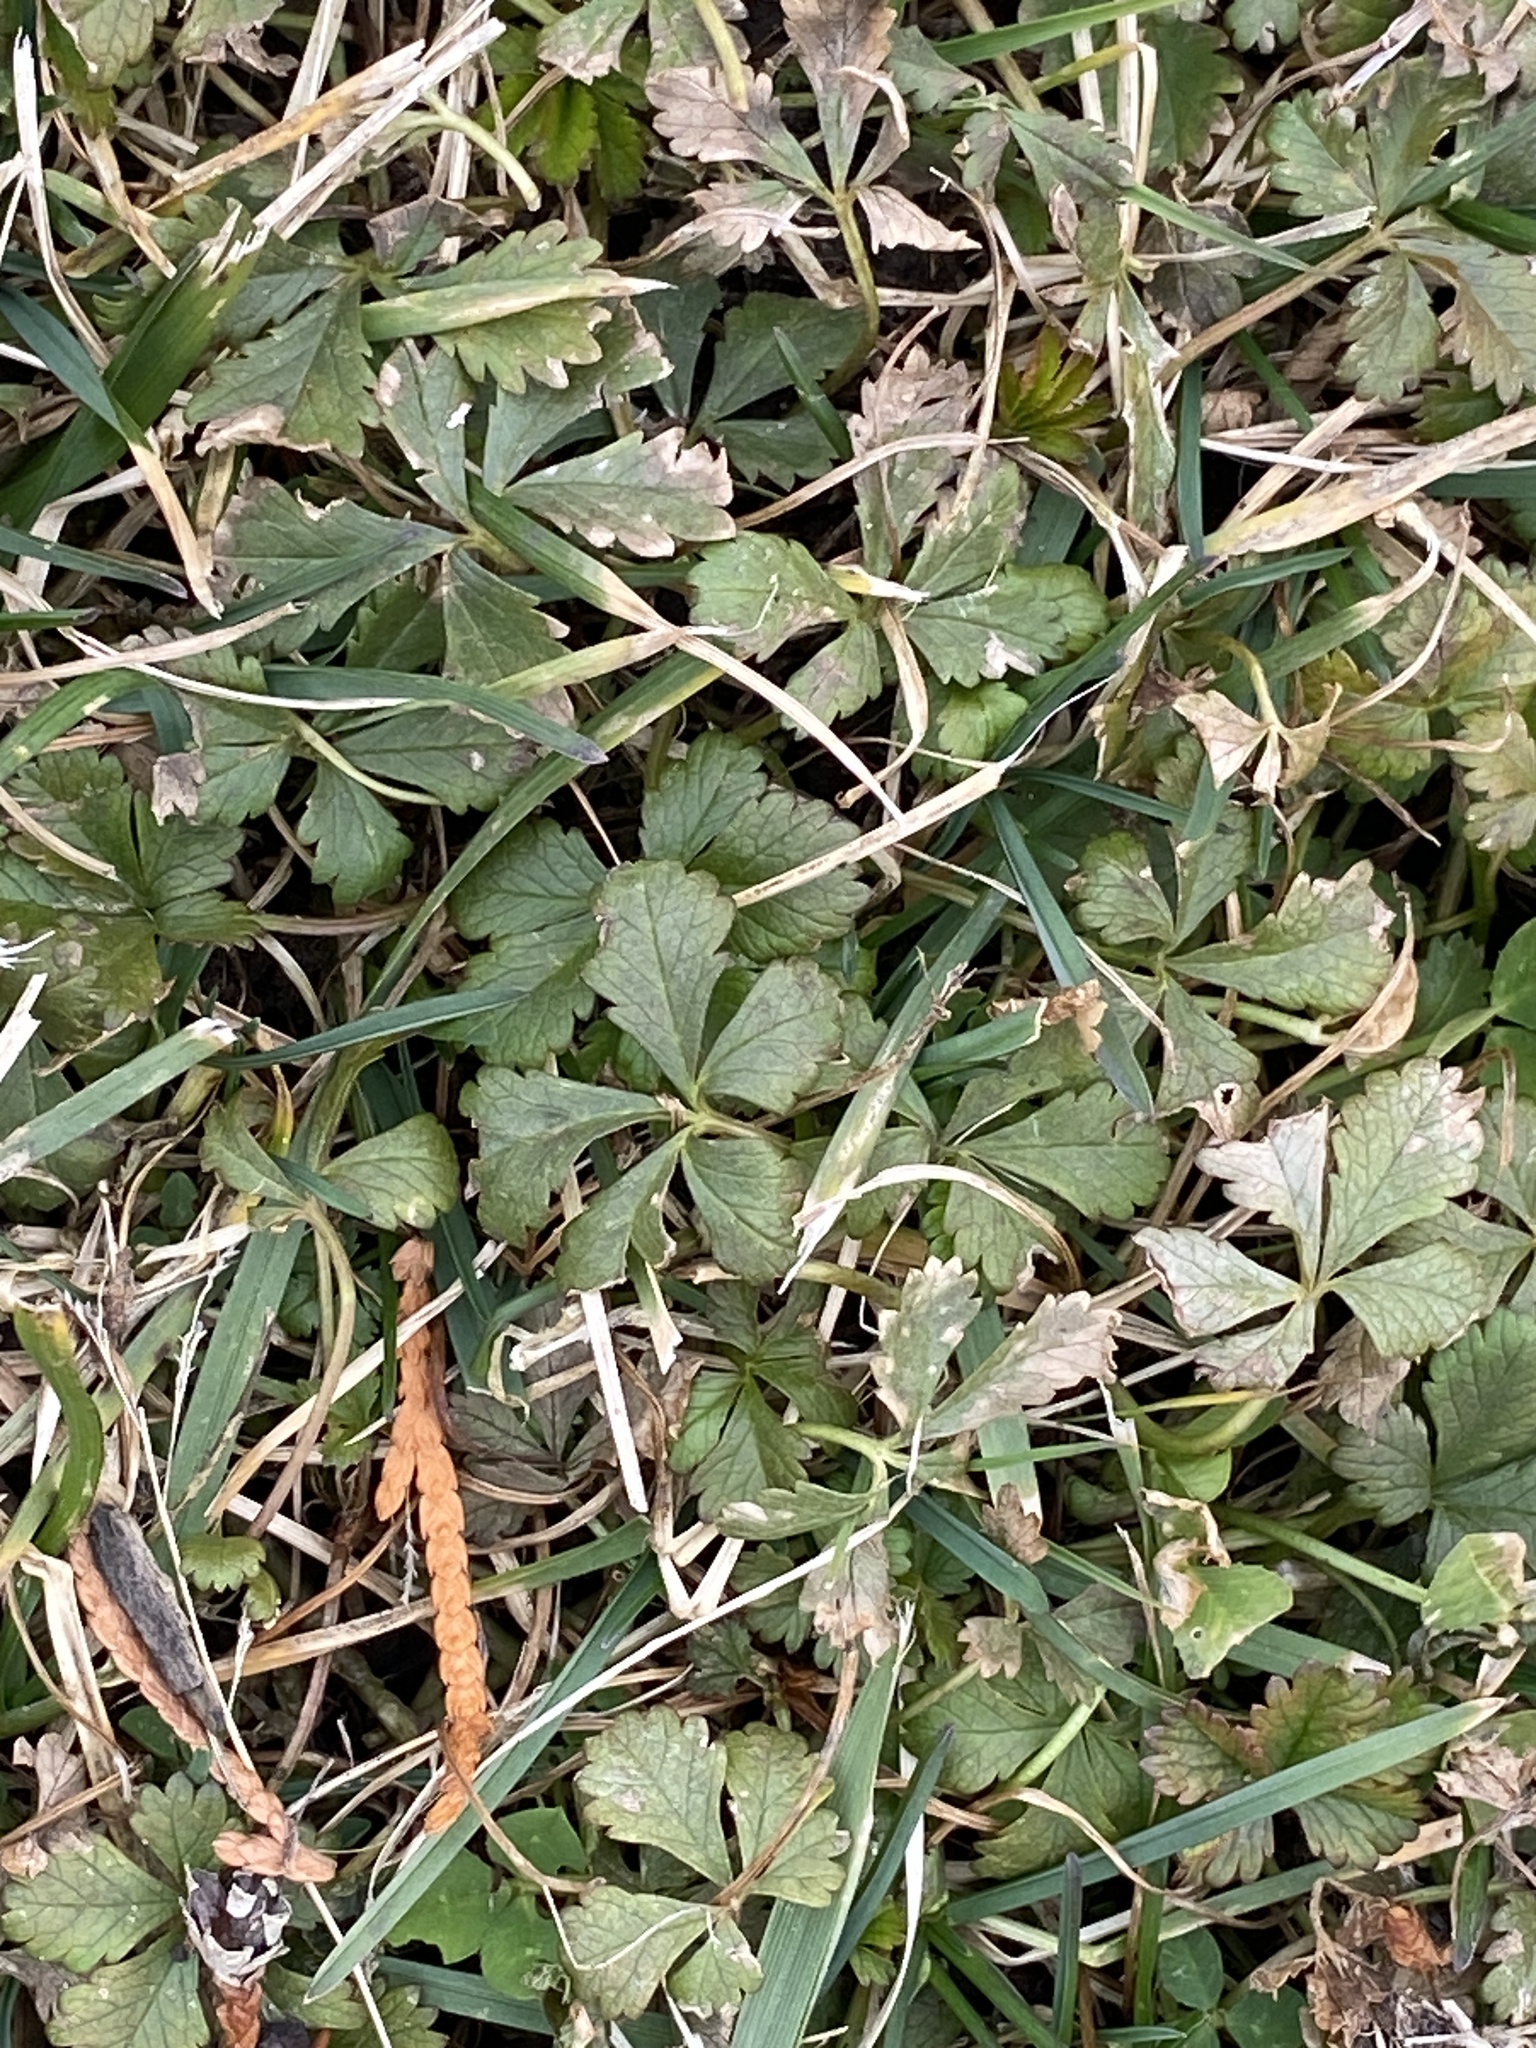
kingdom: Plantae
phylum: Tracheophyta
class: Magnoliopsida
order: Rosales
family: Rosaceae
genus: Potentilla
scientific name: Potentilla reptans
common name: Creeping cinquefoil
